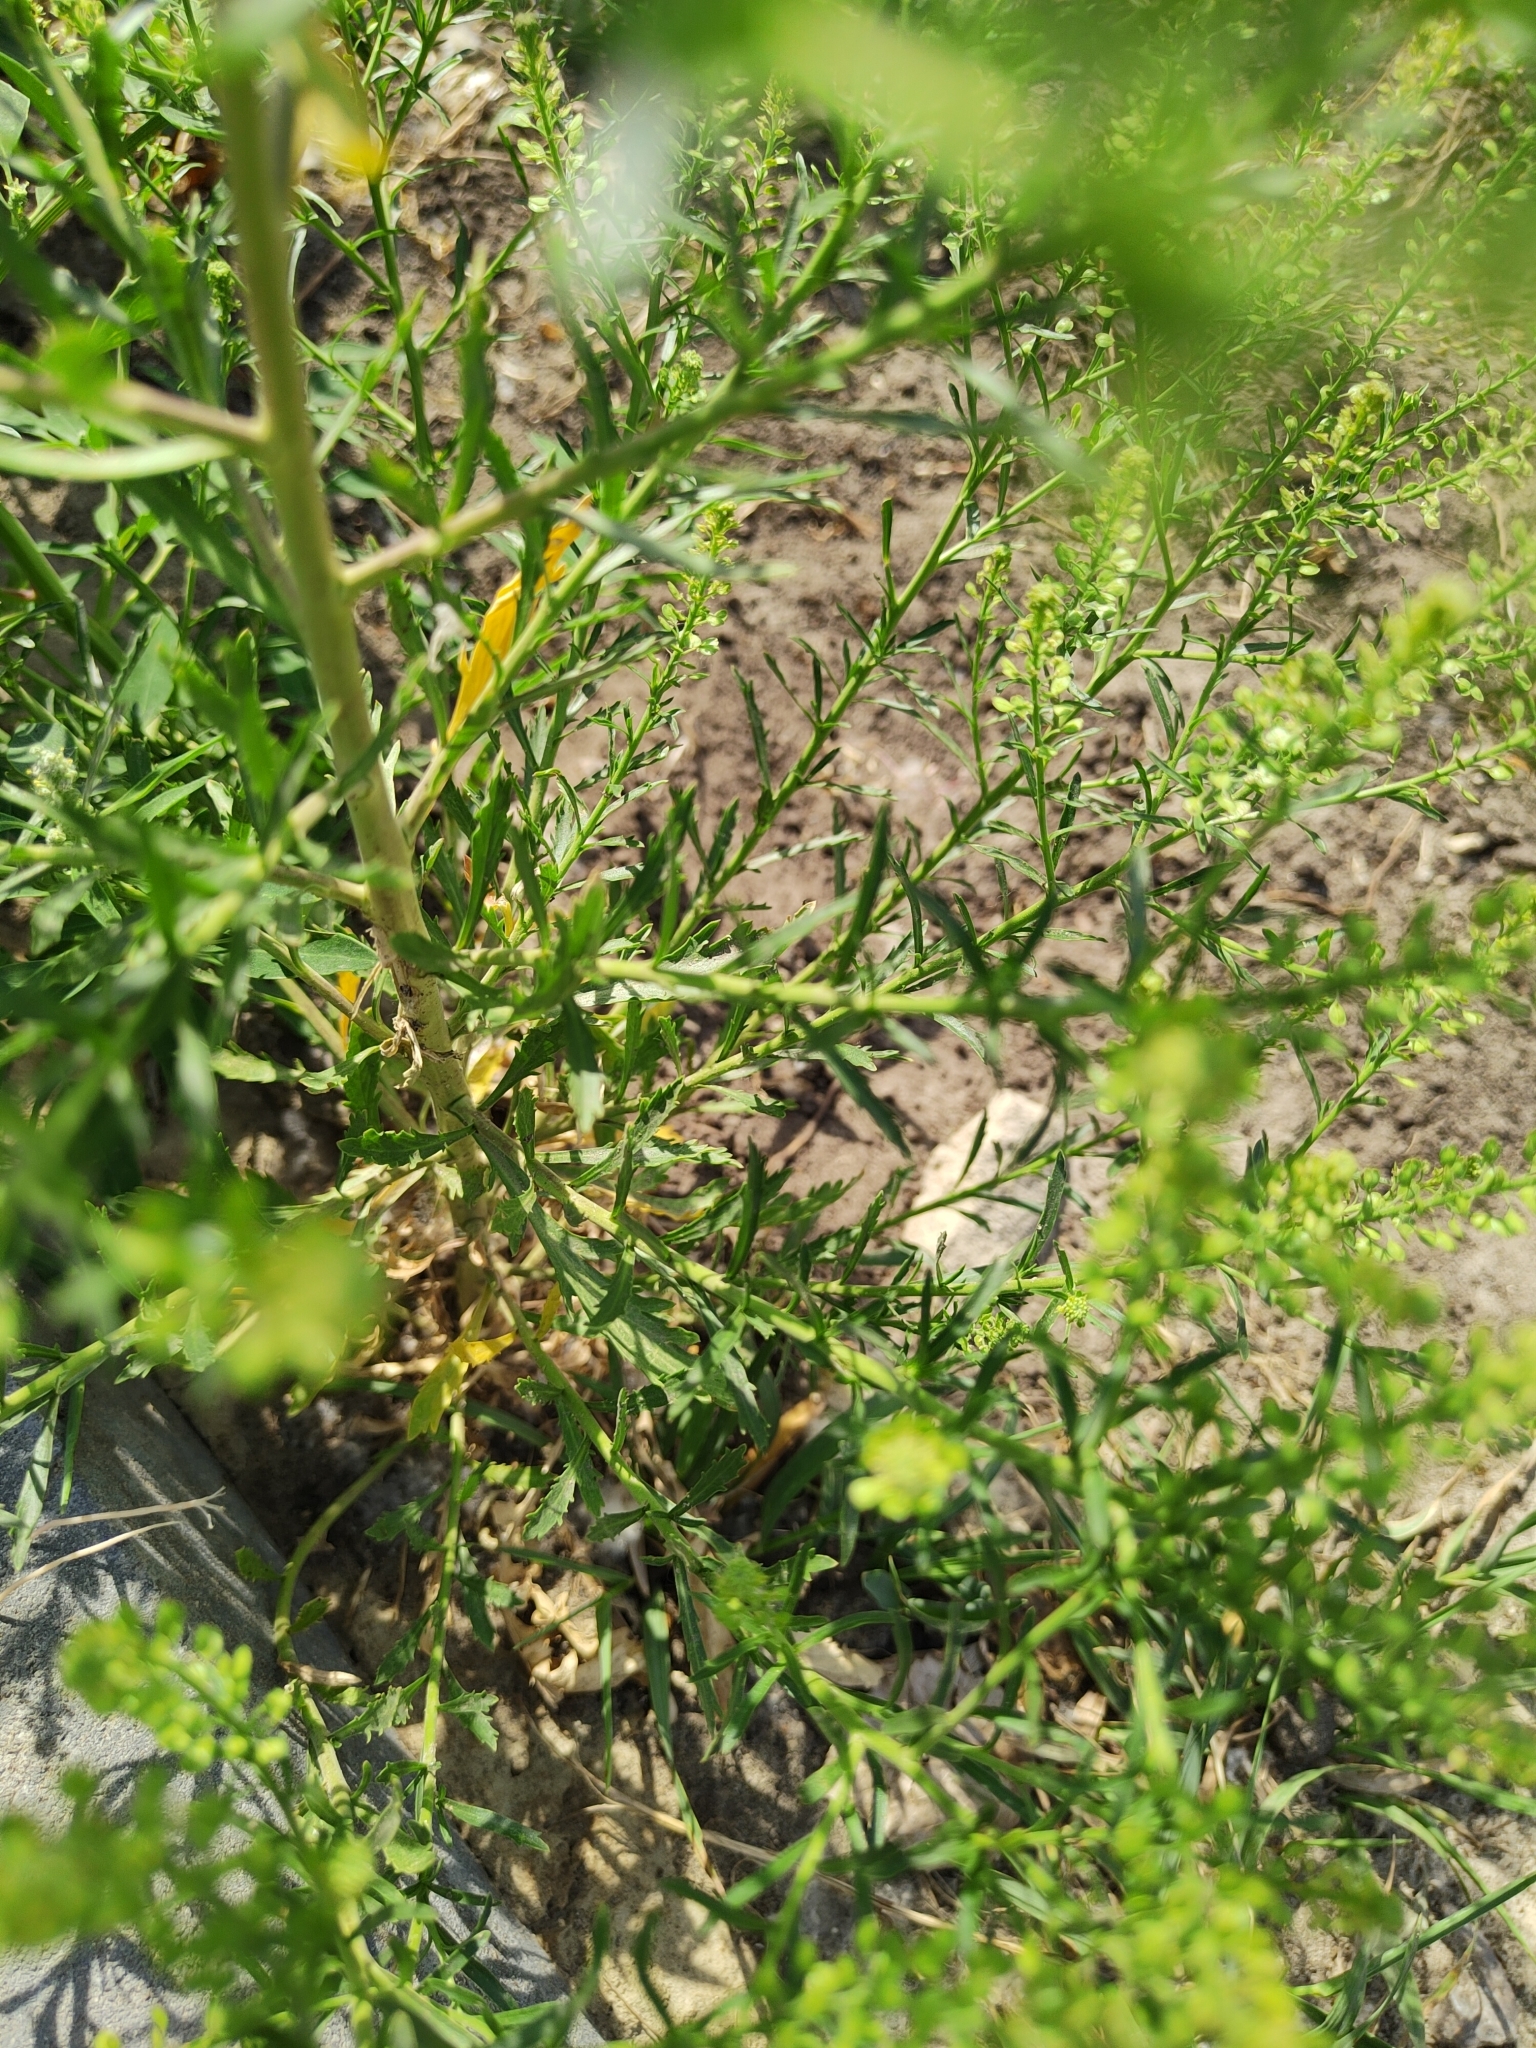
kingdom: Plantae
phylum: Tracheophyta
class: Magnoliopsida
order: Brassicales
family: Brassicaceae
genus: Lepidium
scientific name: Lepidium densiflorum
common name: Miner's pepperwort
